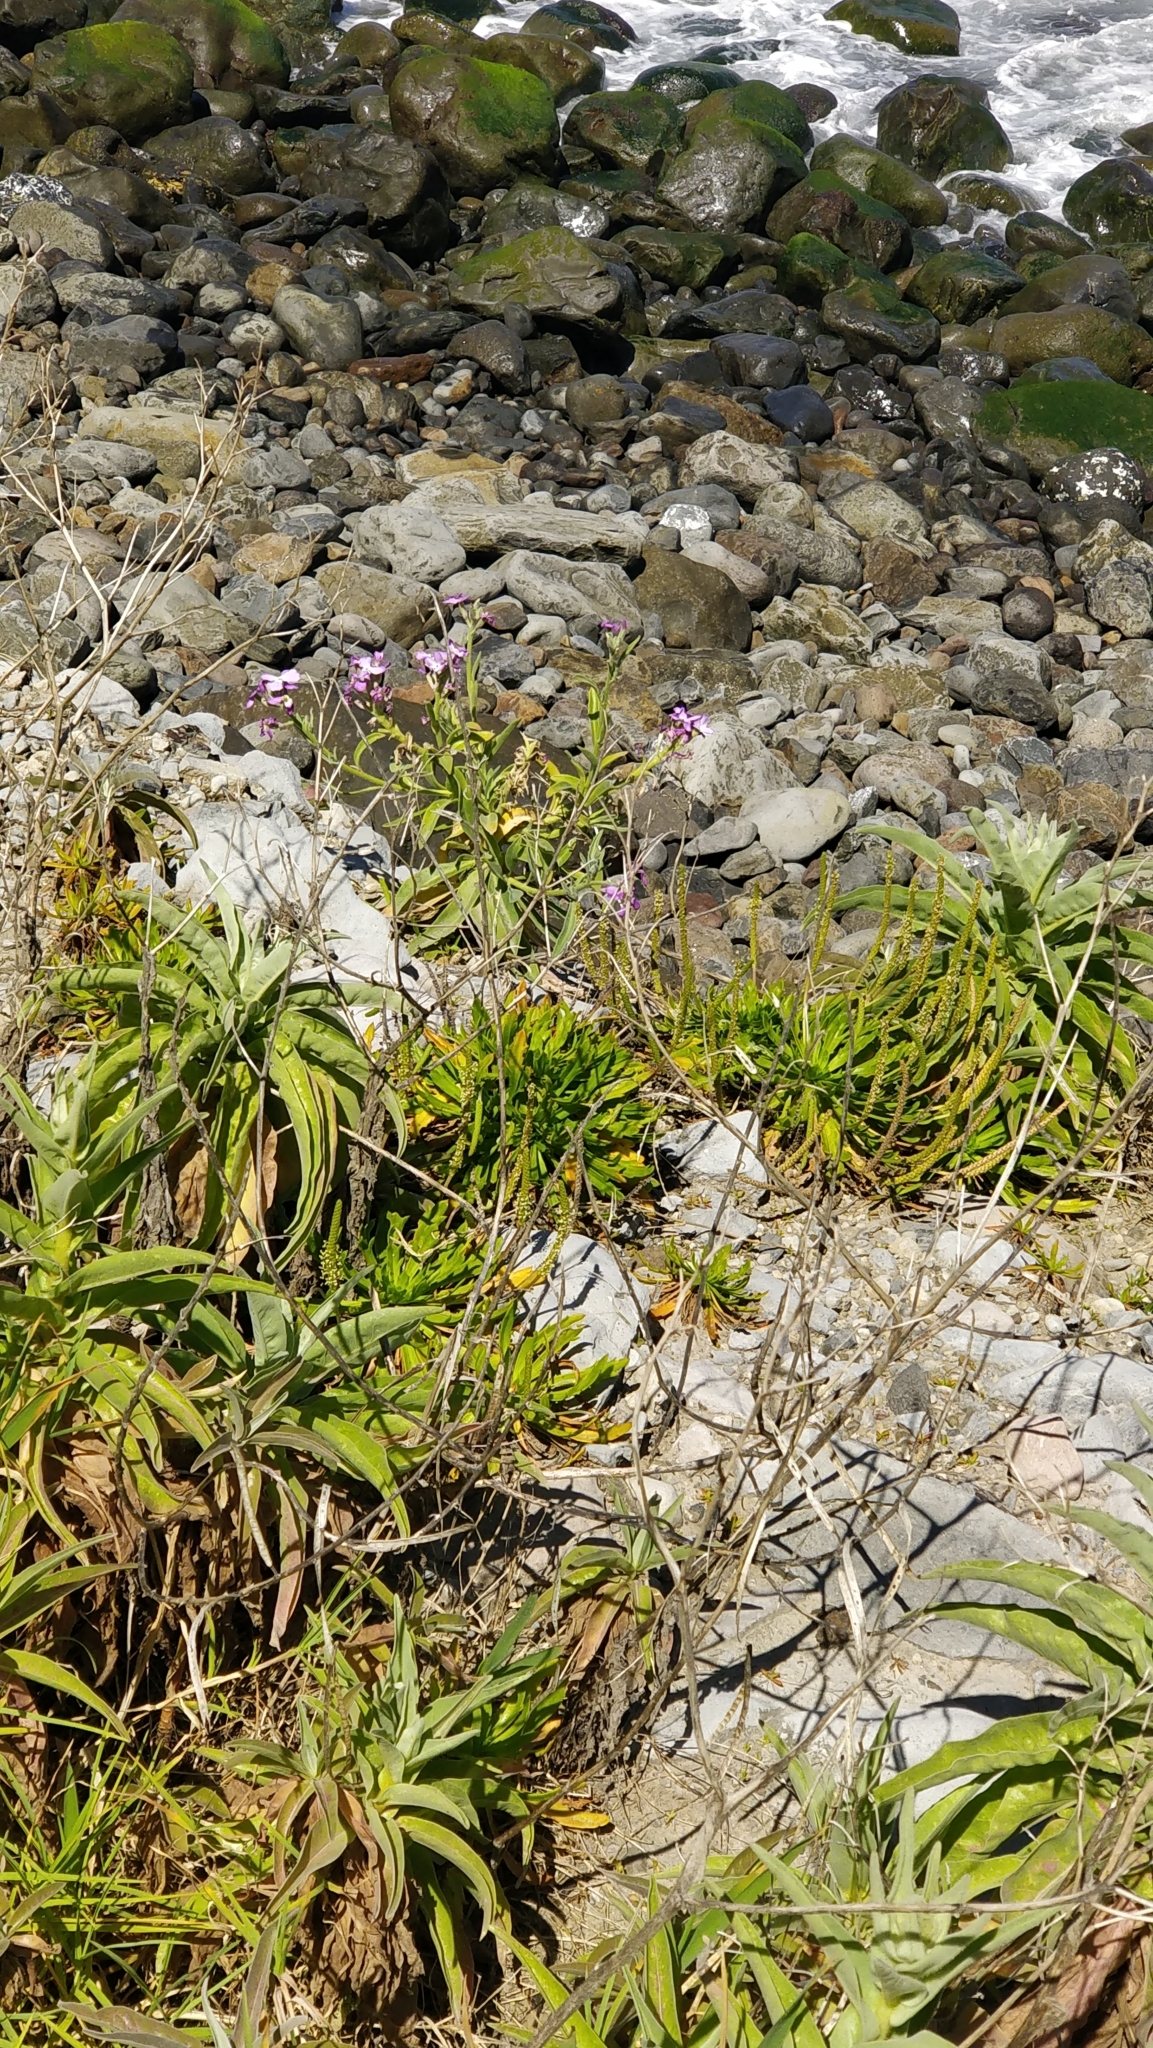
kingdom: Plantae
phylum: Tracheophyta
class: Magnoliopsida
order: Brassicales
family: Brassicaceae
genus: Matthiola
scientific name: Matthiola maderensis
